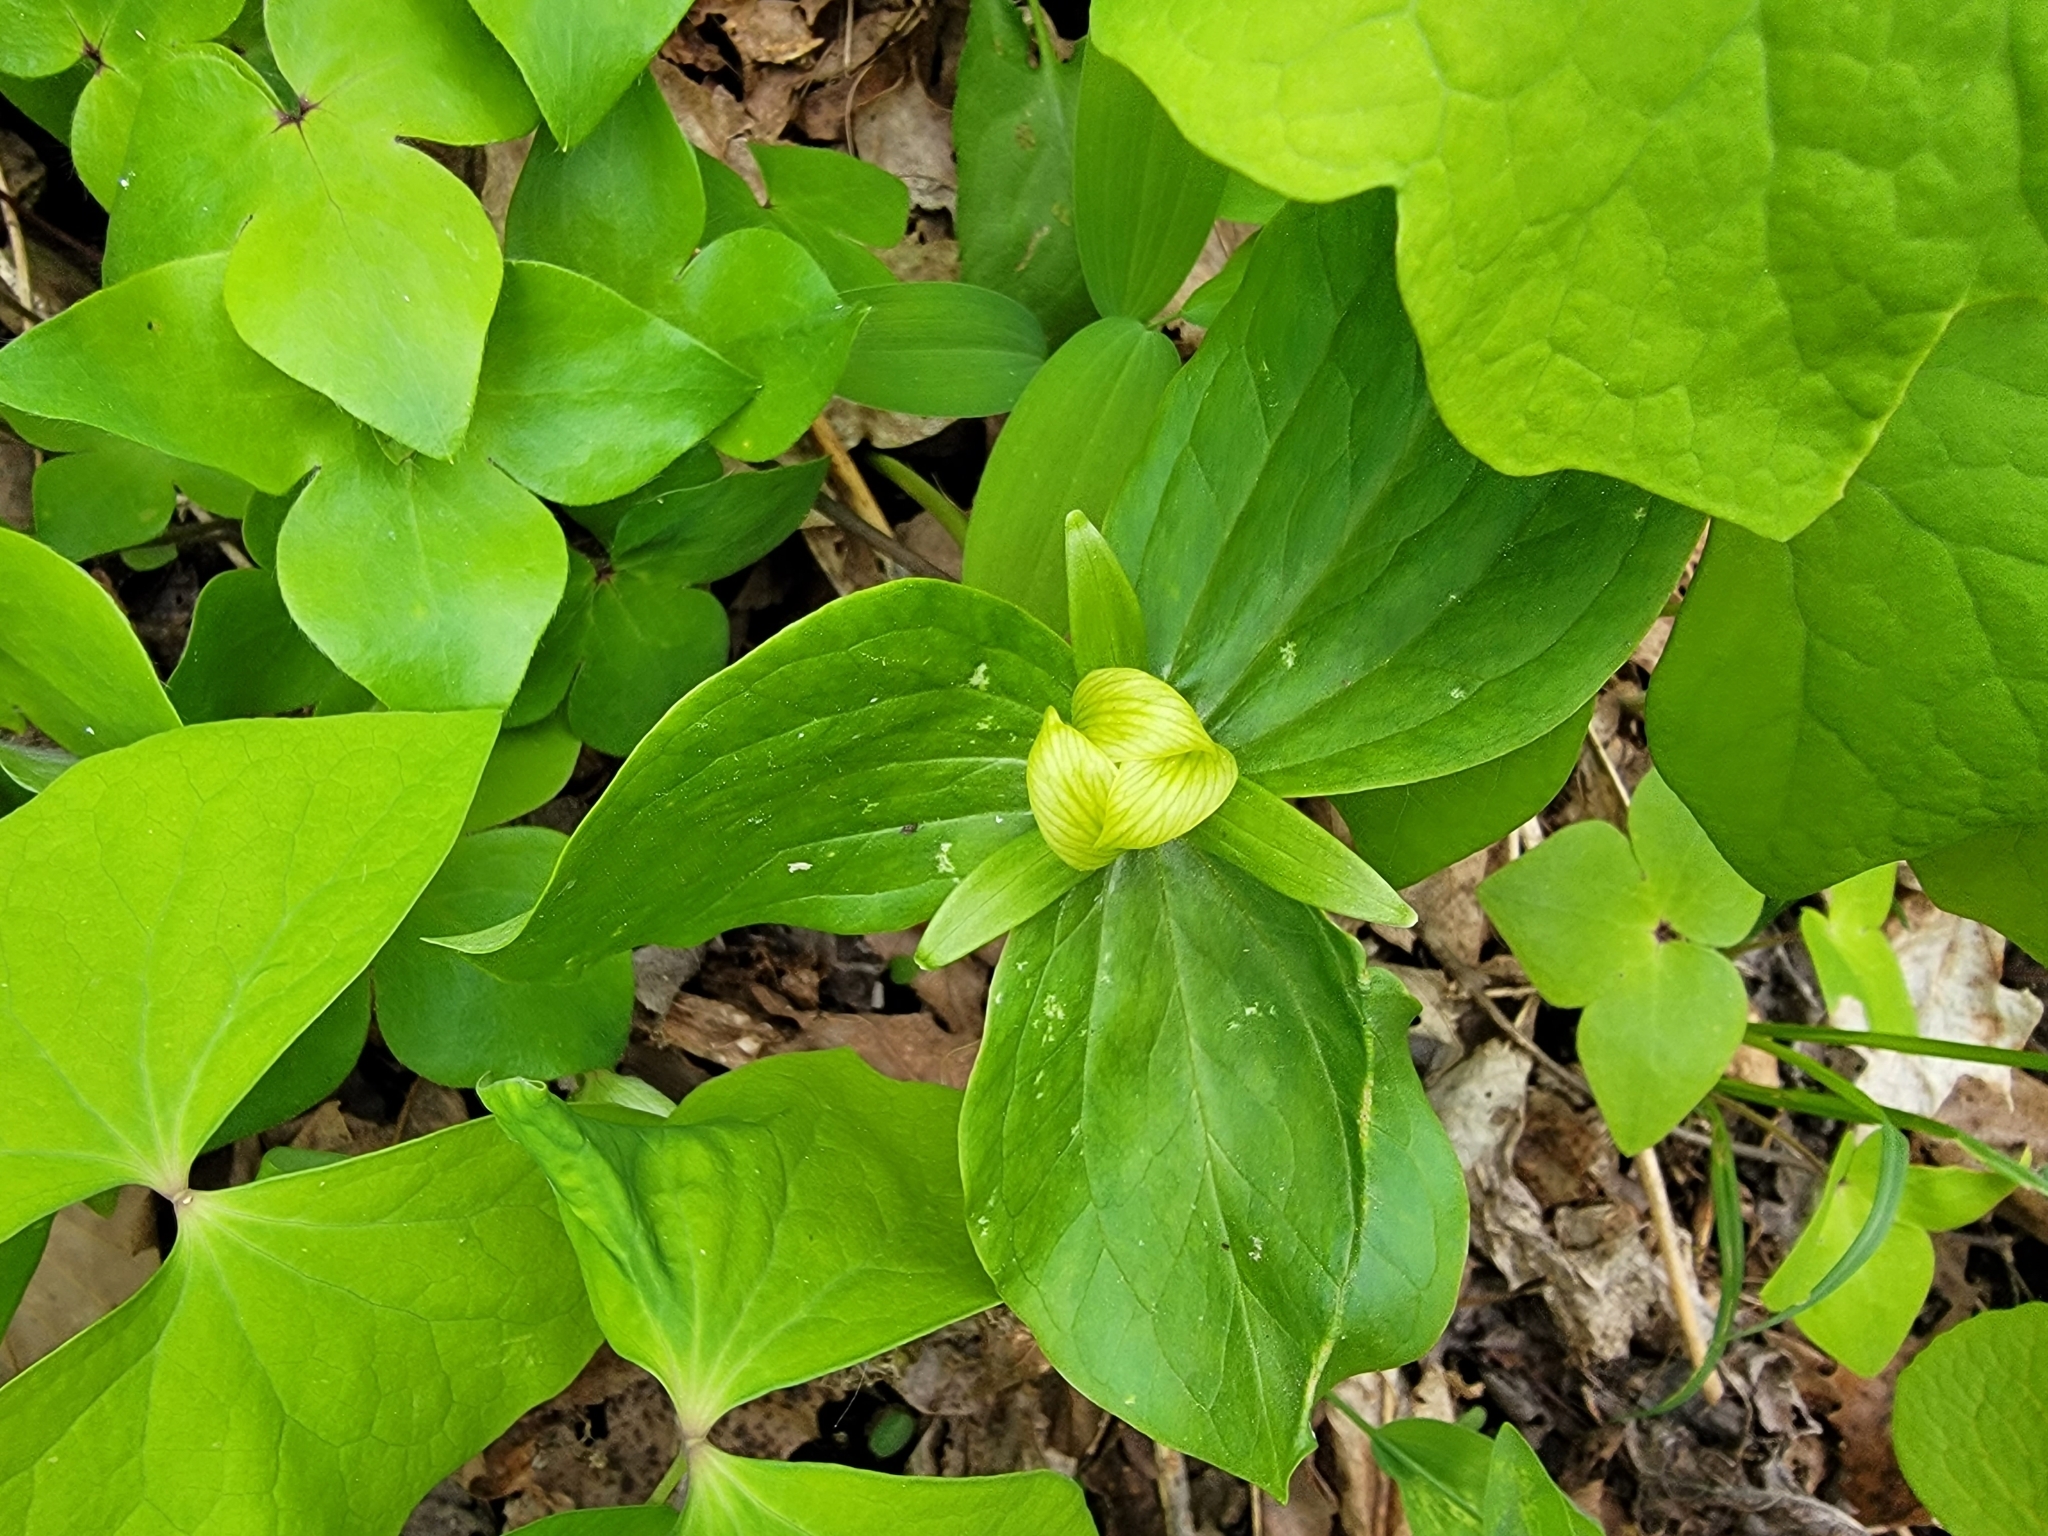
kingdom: Plantae
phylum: Tracheophyta
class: Liliopsida
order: Liliales
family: Melanthiaceae
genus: Trillium
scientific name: Trillium sessile
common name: Sessile trillium
